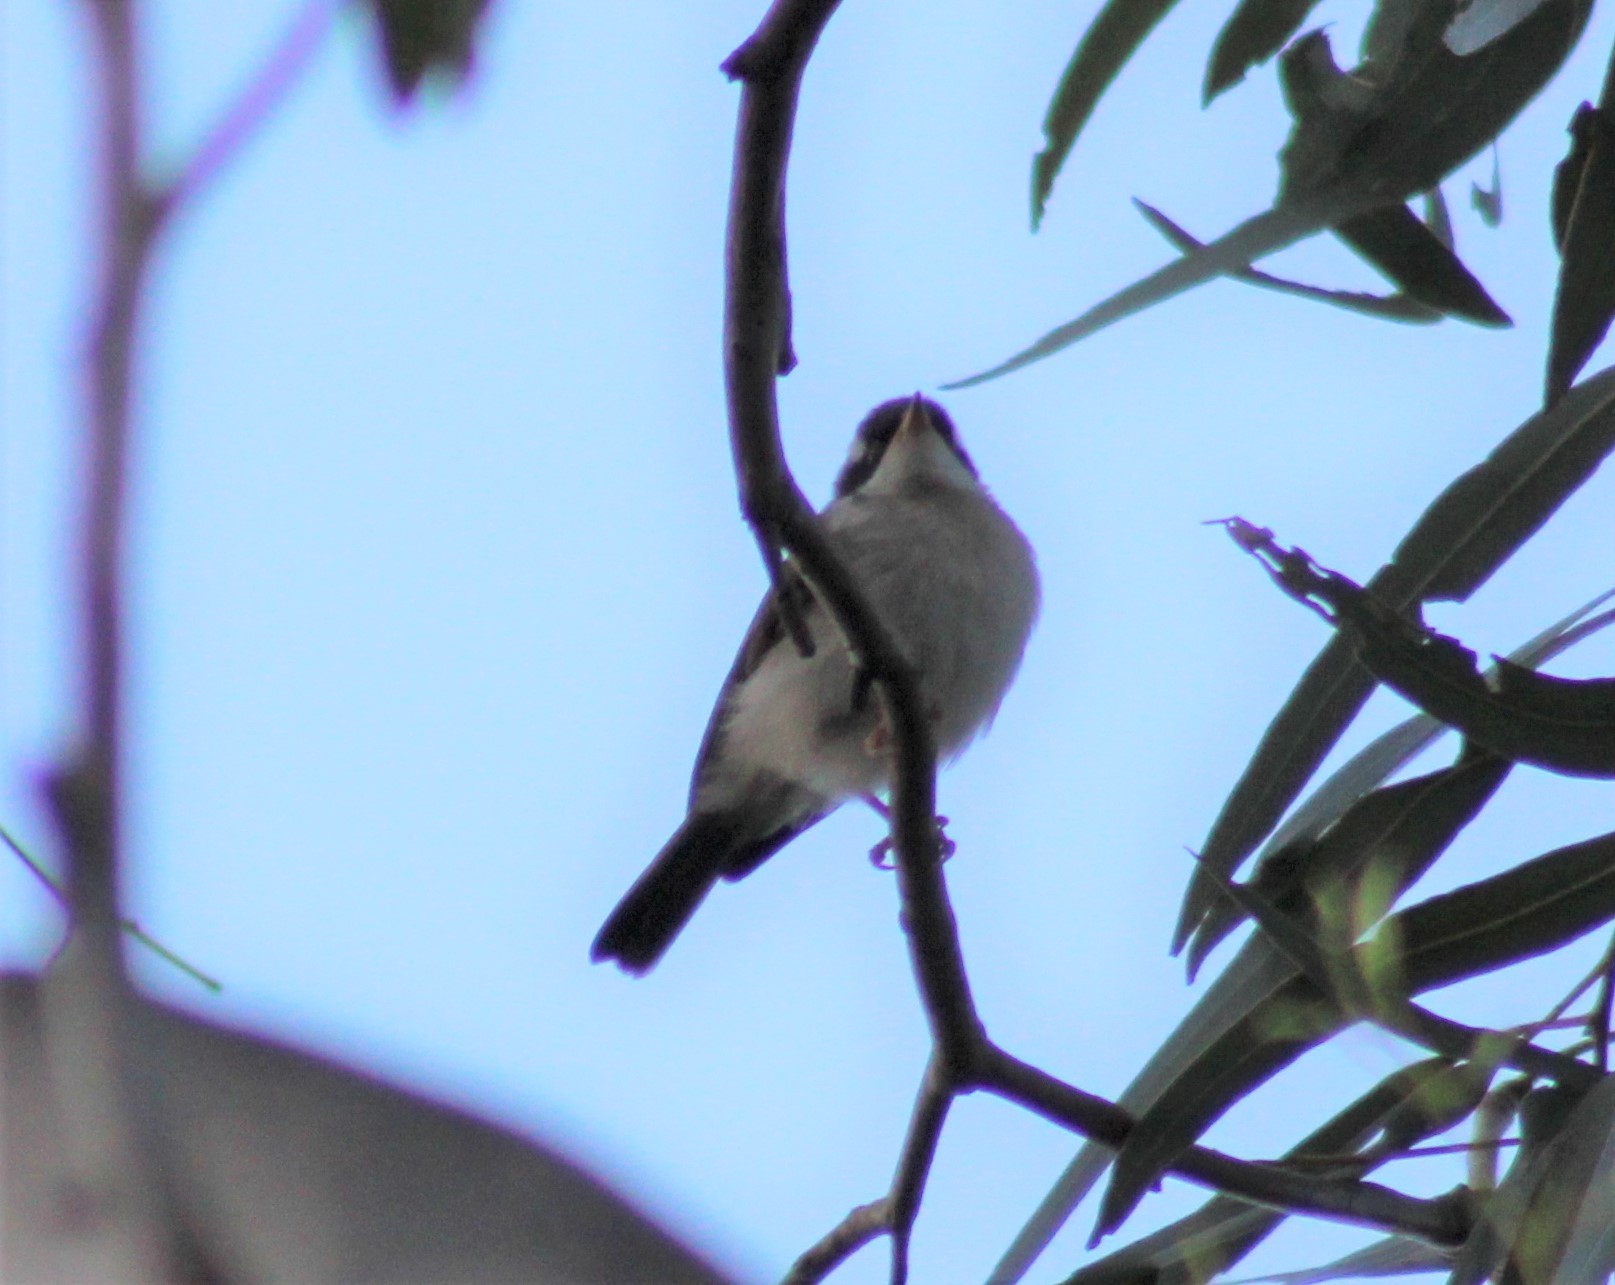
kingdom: Animalia
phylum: Chordata
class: Aves
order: Passeriformes
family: Meliphagidae
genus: Melithreptus
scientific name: Melithreptus albogularis
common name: White-throated honeyeater
